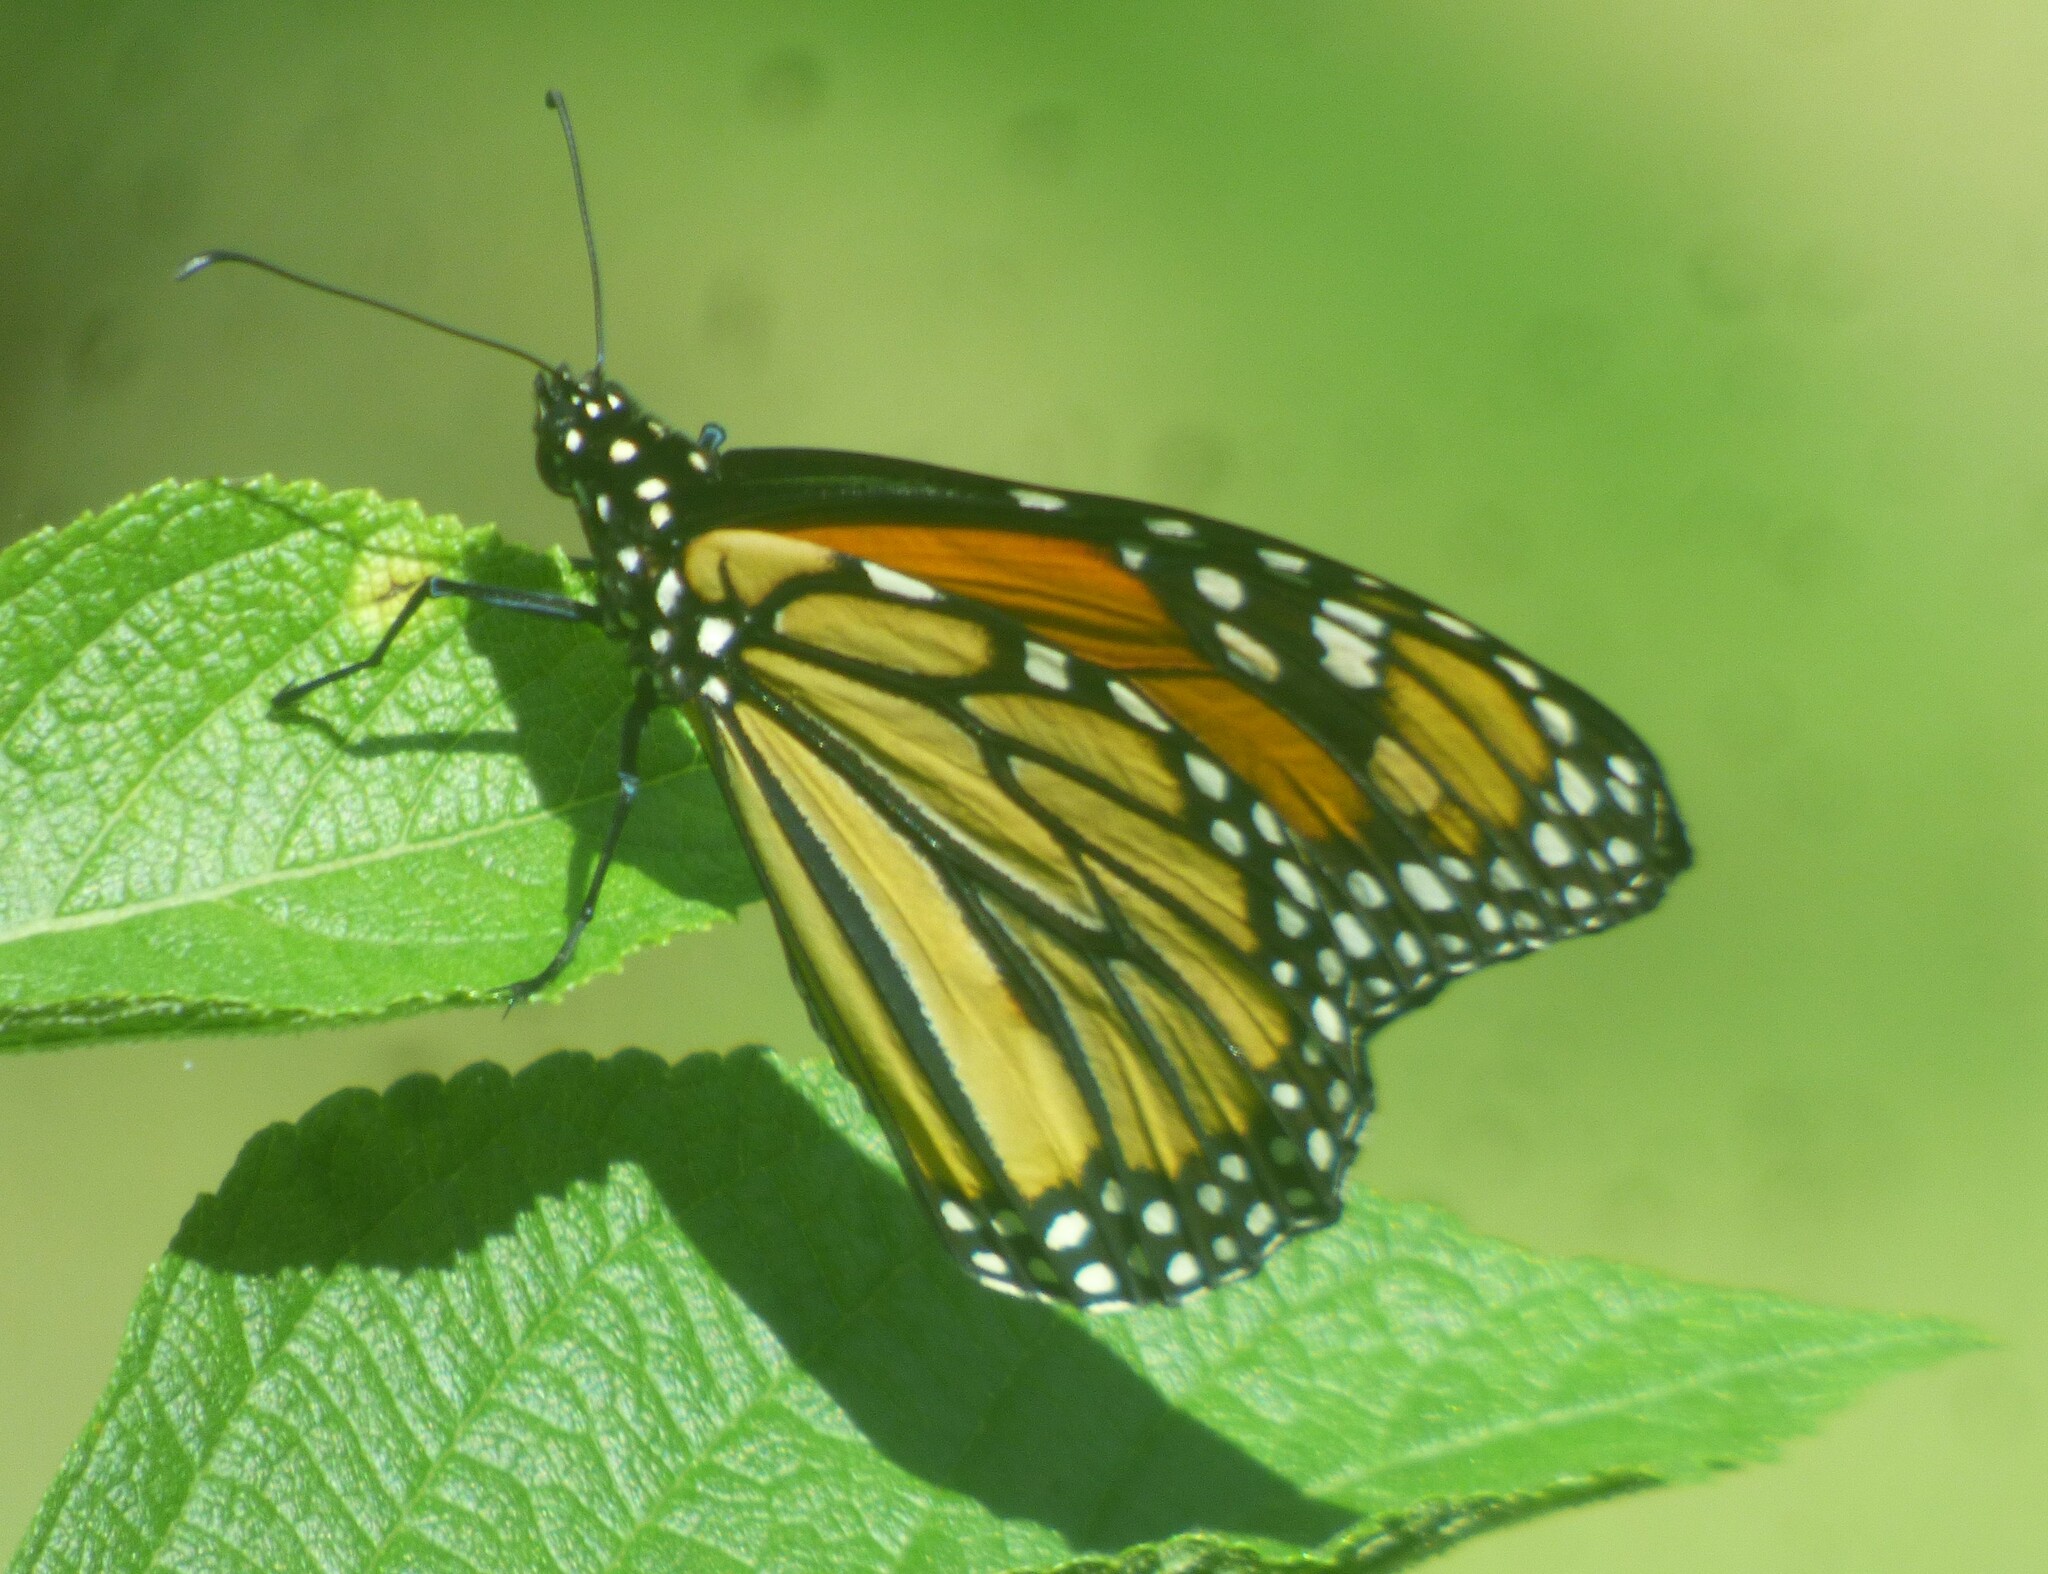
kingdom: Animalia
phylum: Arthropoda
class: Insecta
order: Lepidoptera
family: Nymphalidae
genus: Danaus
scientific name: Danaus plexippus
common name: Monarch
